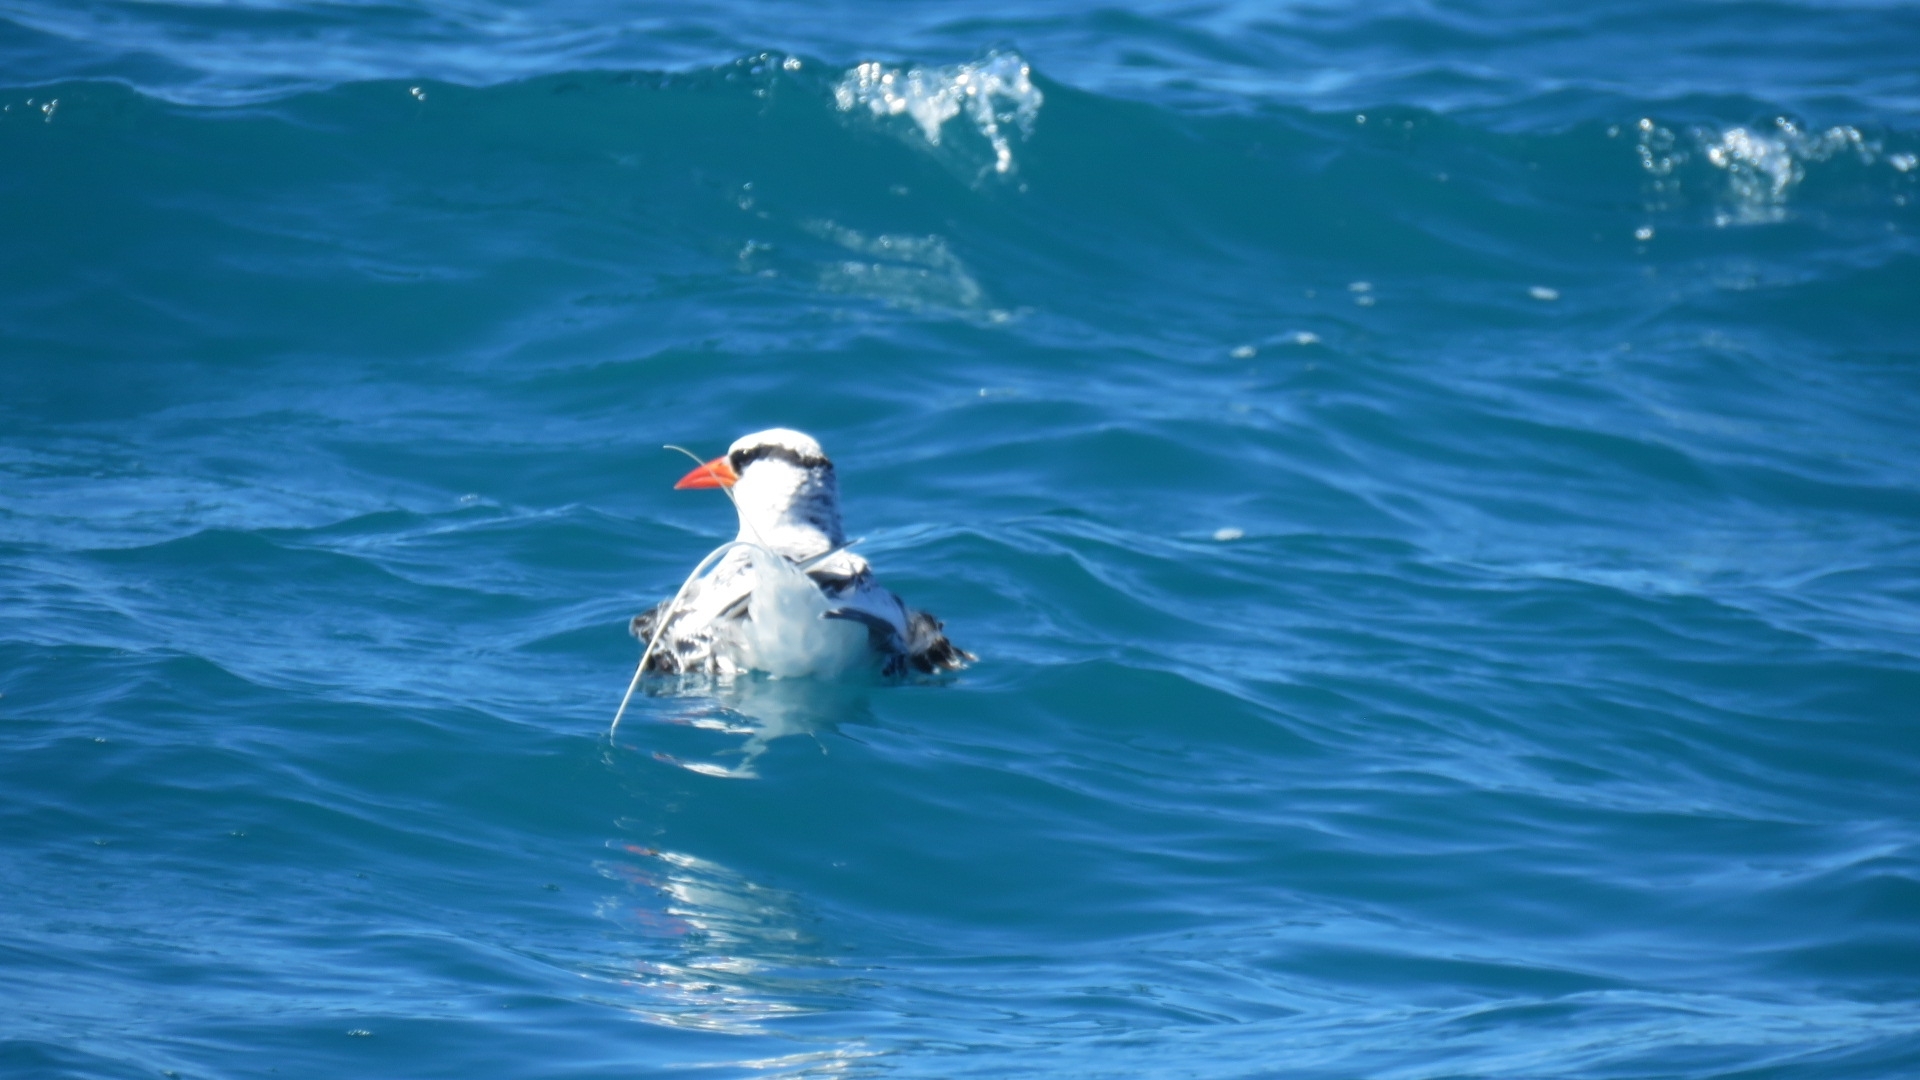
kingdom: Animalia
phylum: Chordata
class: Aves
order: Phaethontiformes
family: Phaethontidae
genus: Phaethon
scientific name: Phaethon aethereus
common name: Red-billed tropicbird
